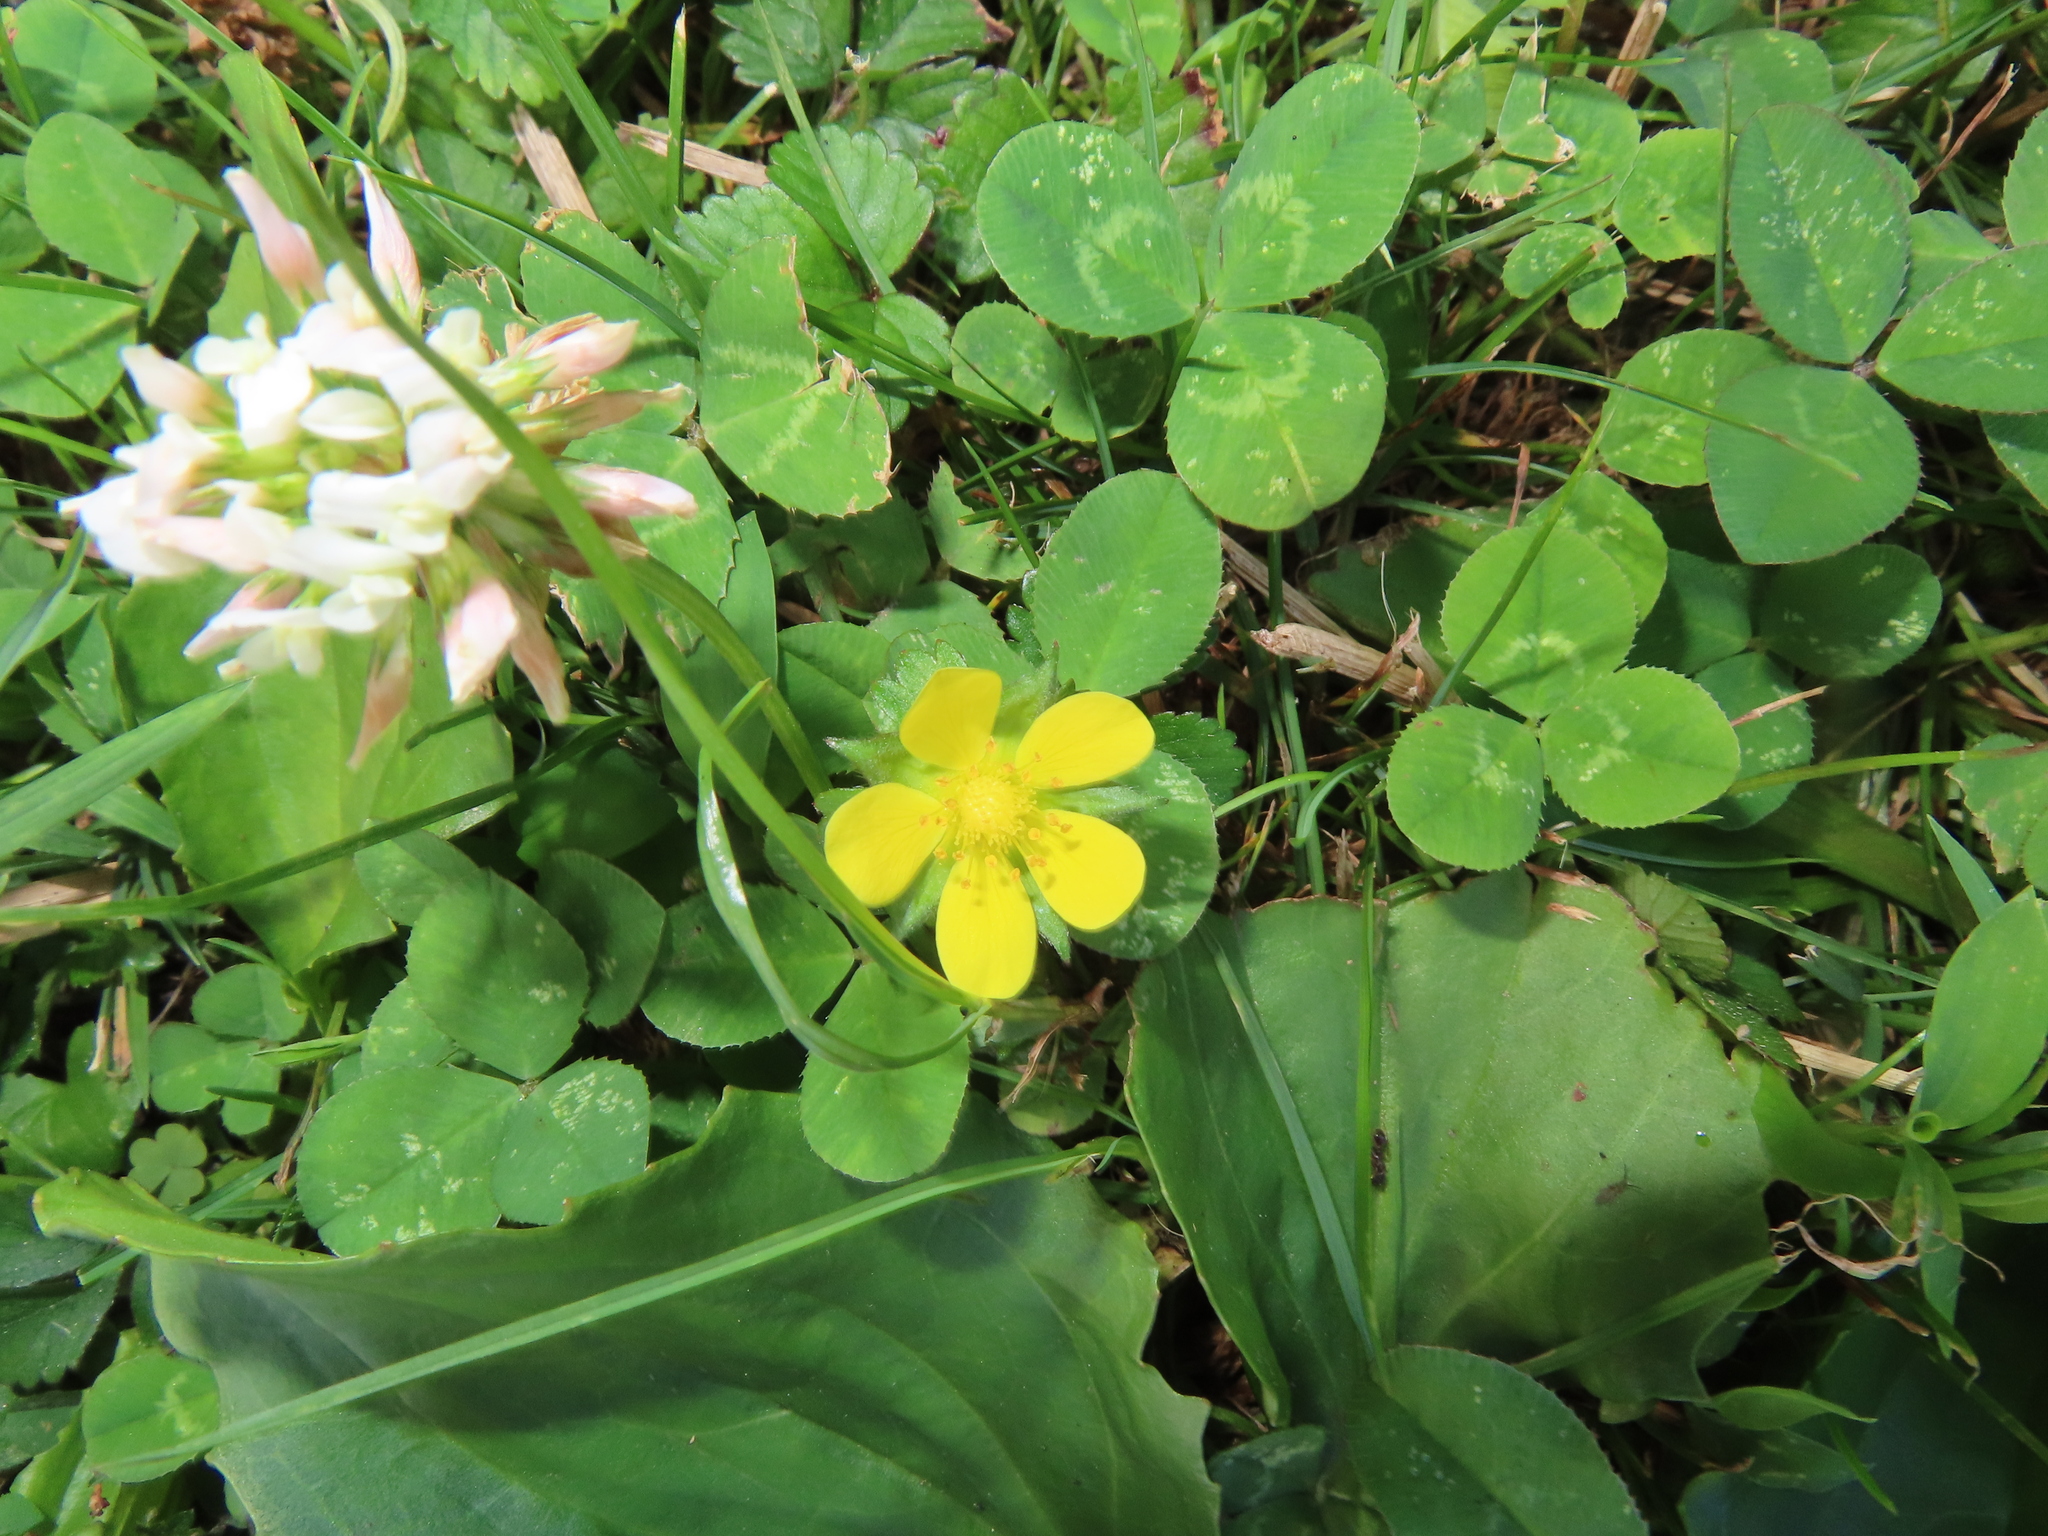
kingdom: Plantae
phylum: Tracheophyta
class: Magnoliopsida
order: Fabales
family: Fabaceae
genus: Trifolium
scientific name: Trifolium repens
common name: White clover
